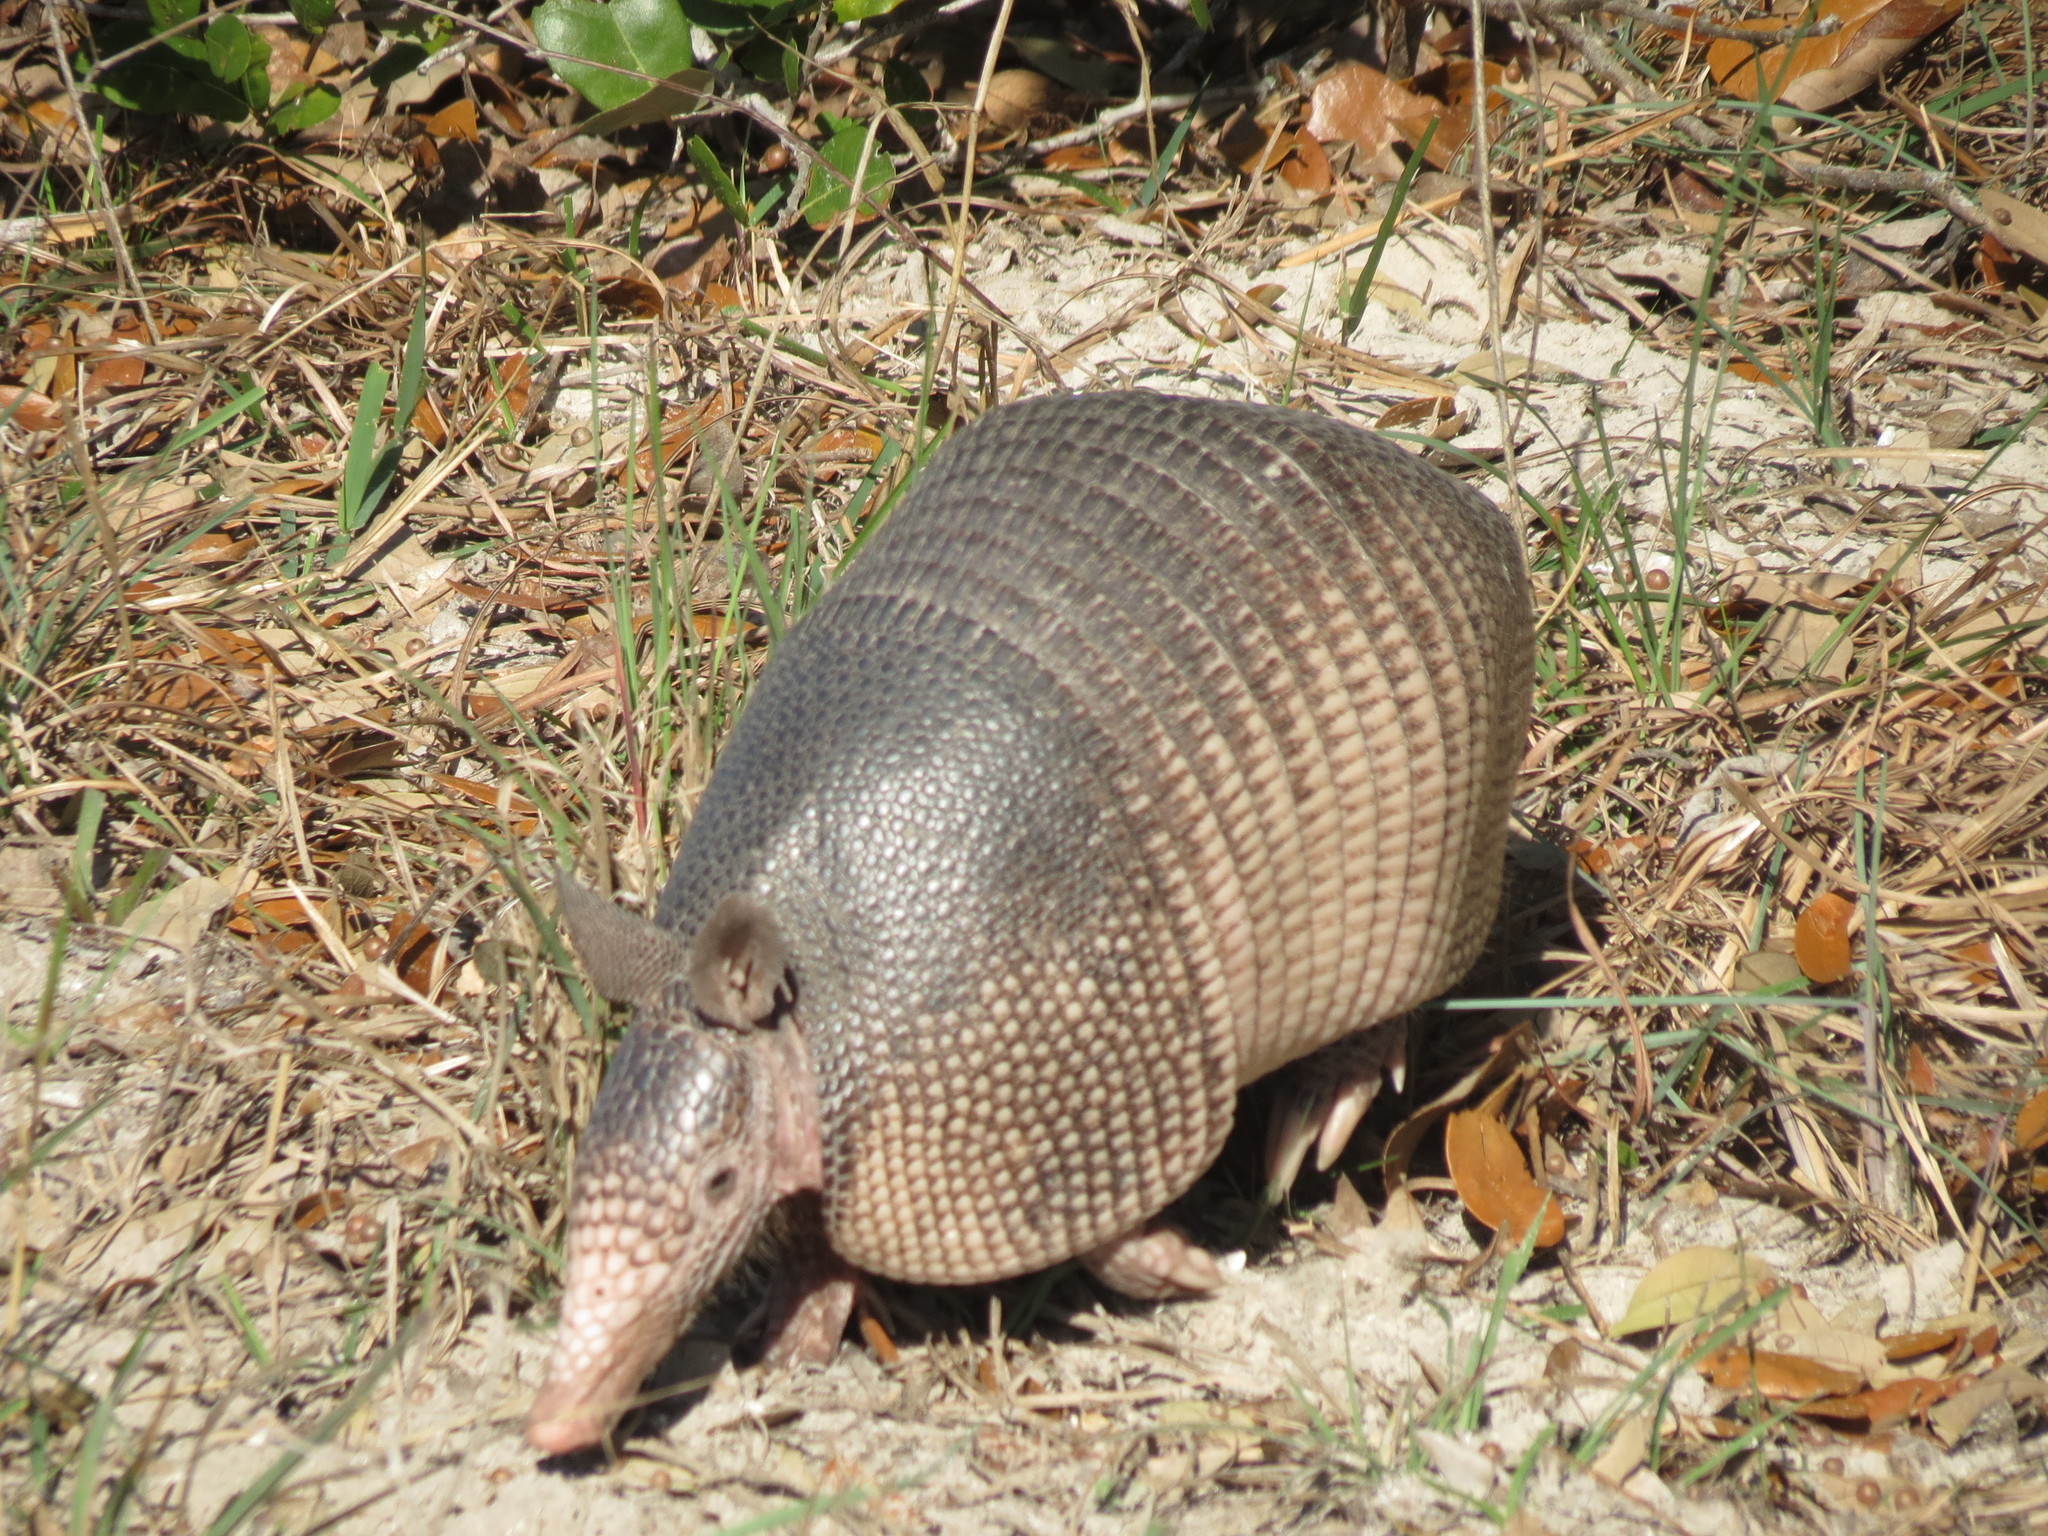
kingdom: Animalia
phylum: Chordata
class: Mammalia
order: Cingulata
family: Dasypodidae
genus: Dasypus
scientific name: Dasypus novemcinctus
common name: Nine-banded armadillo
